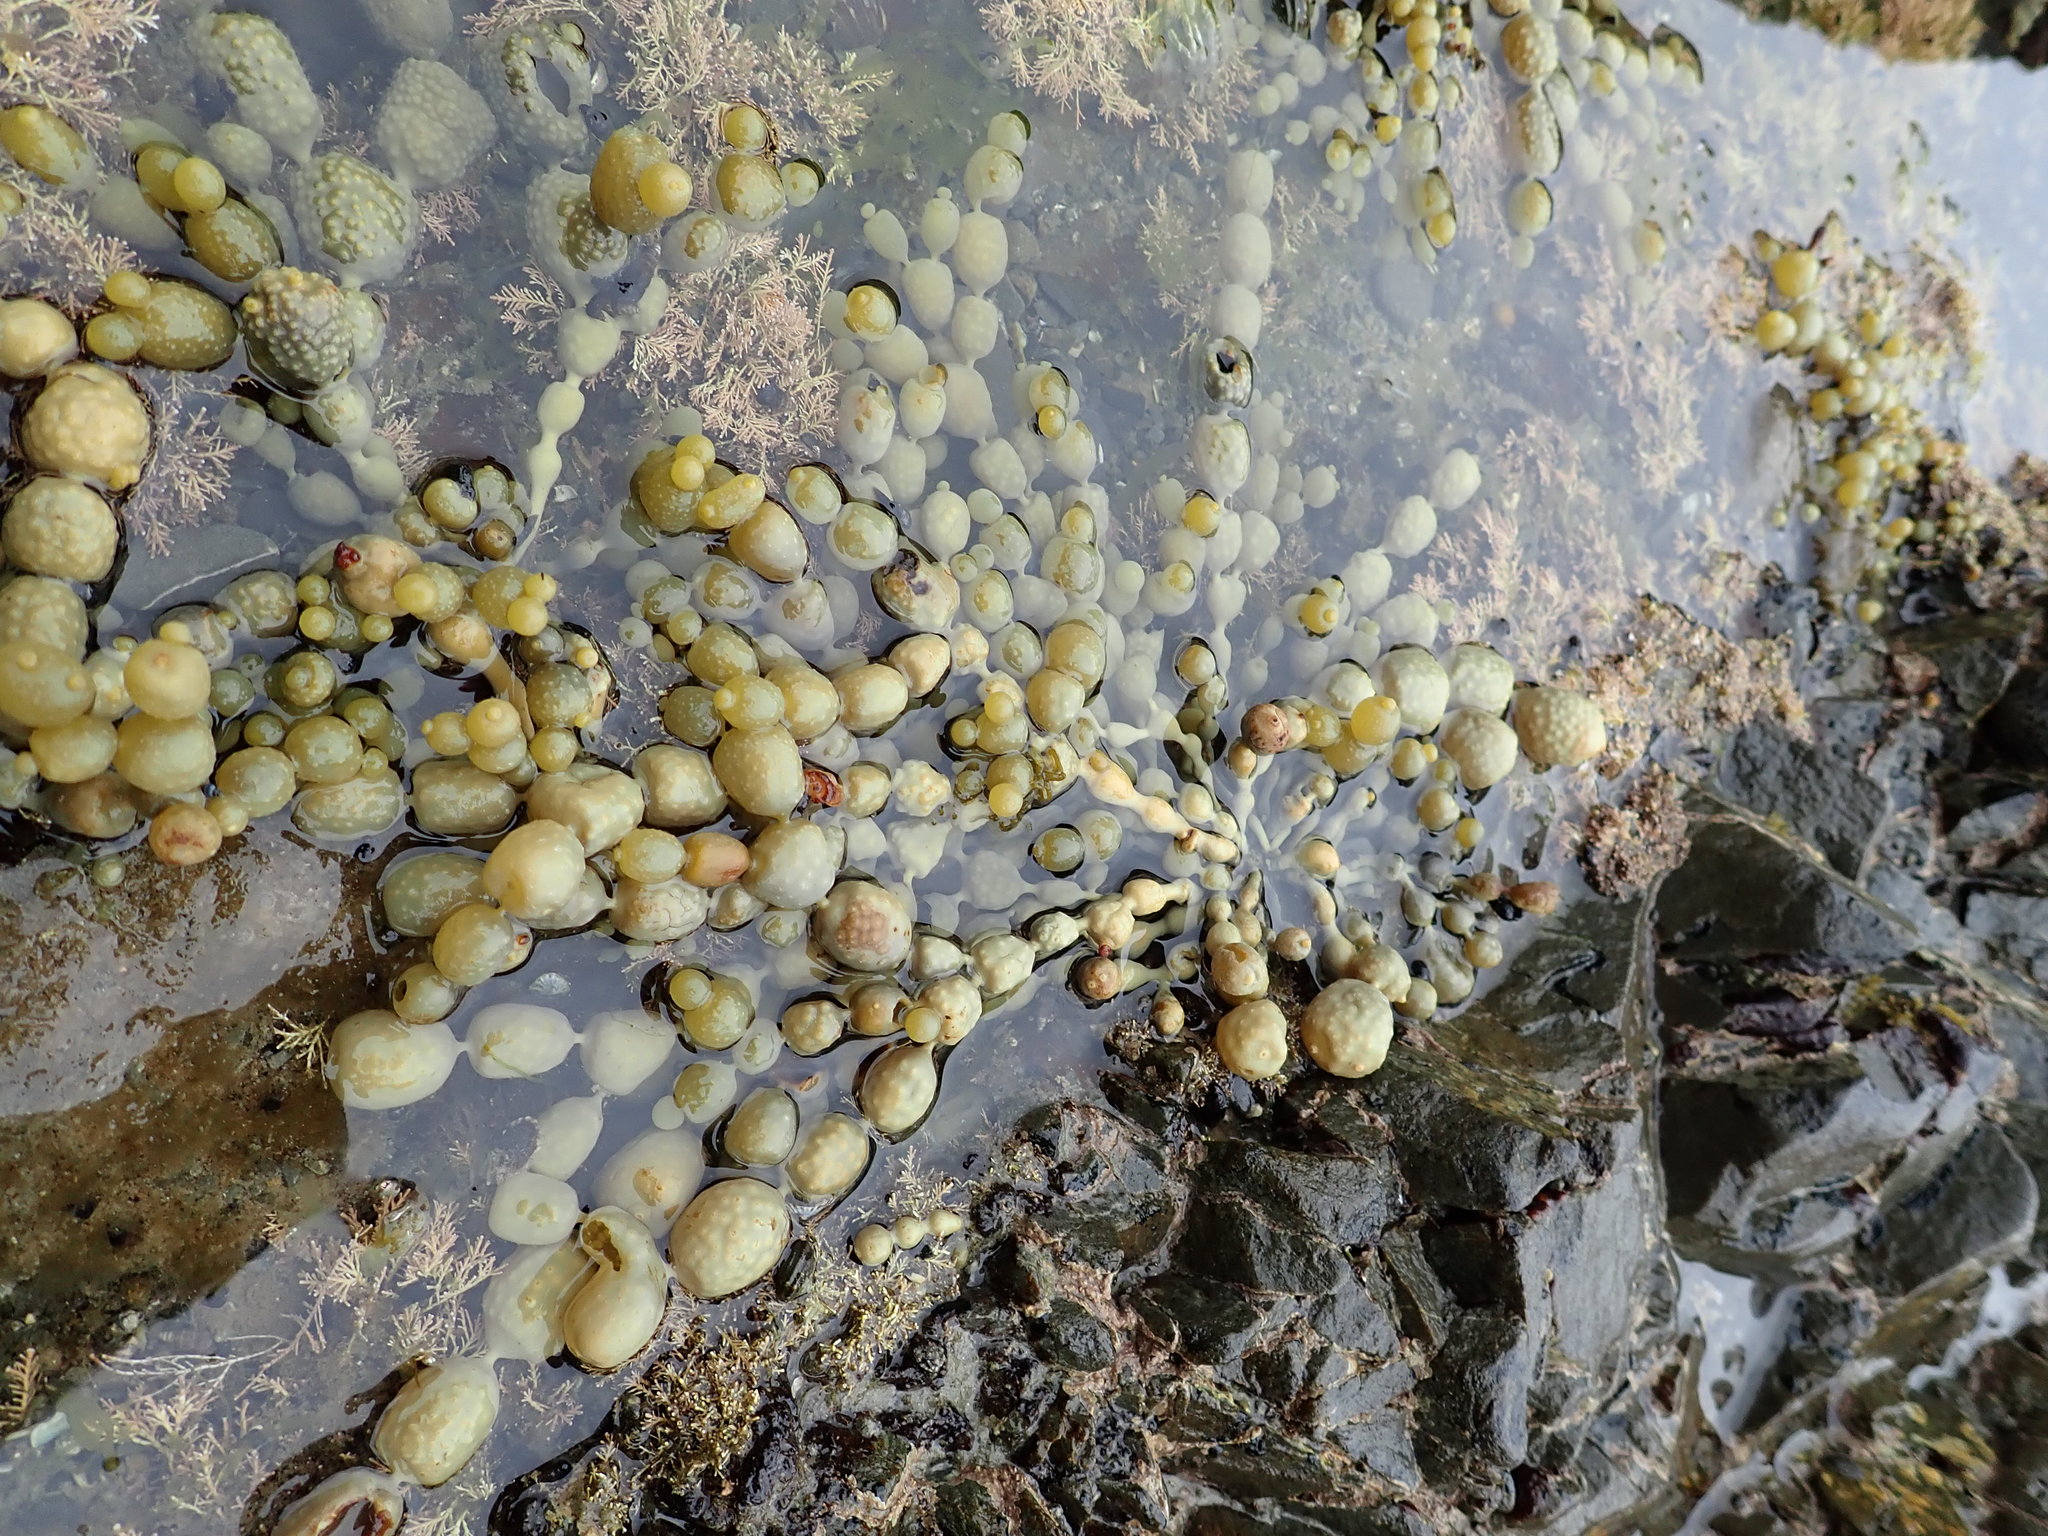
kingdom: Chromista
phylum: Ochrophyta
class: Phaeophyceae
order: Fucales
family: Hormosiraceae
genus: Hormosira
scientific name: Hormosira banksii
